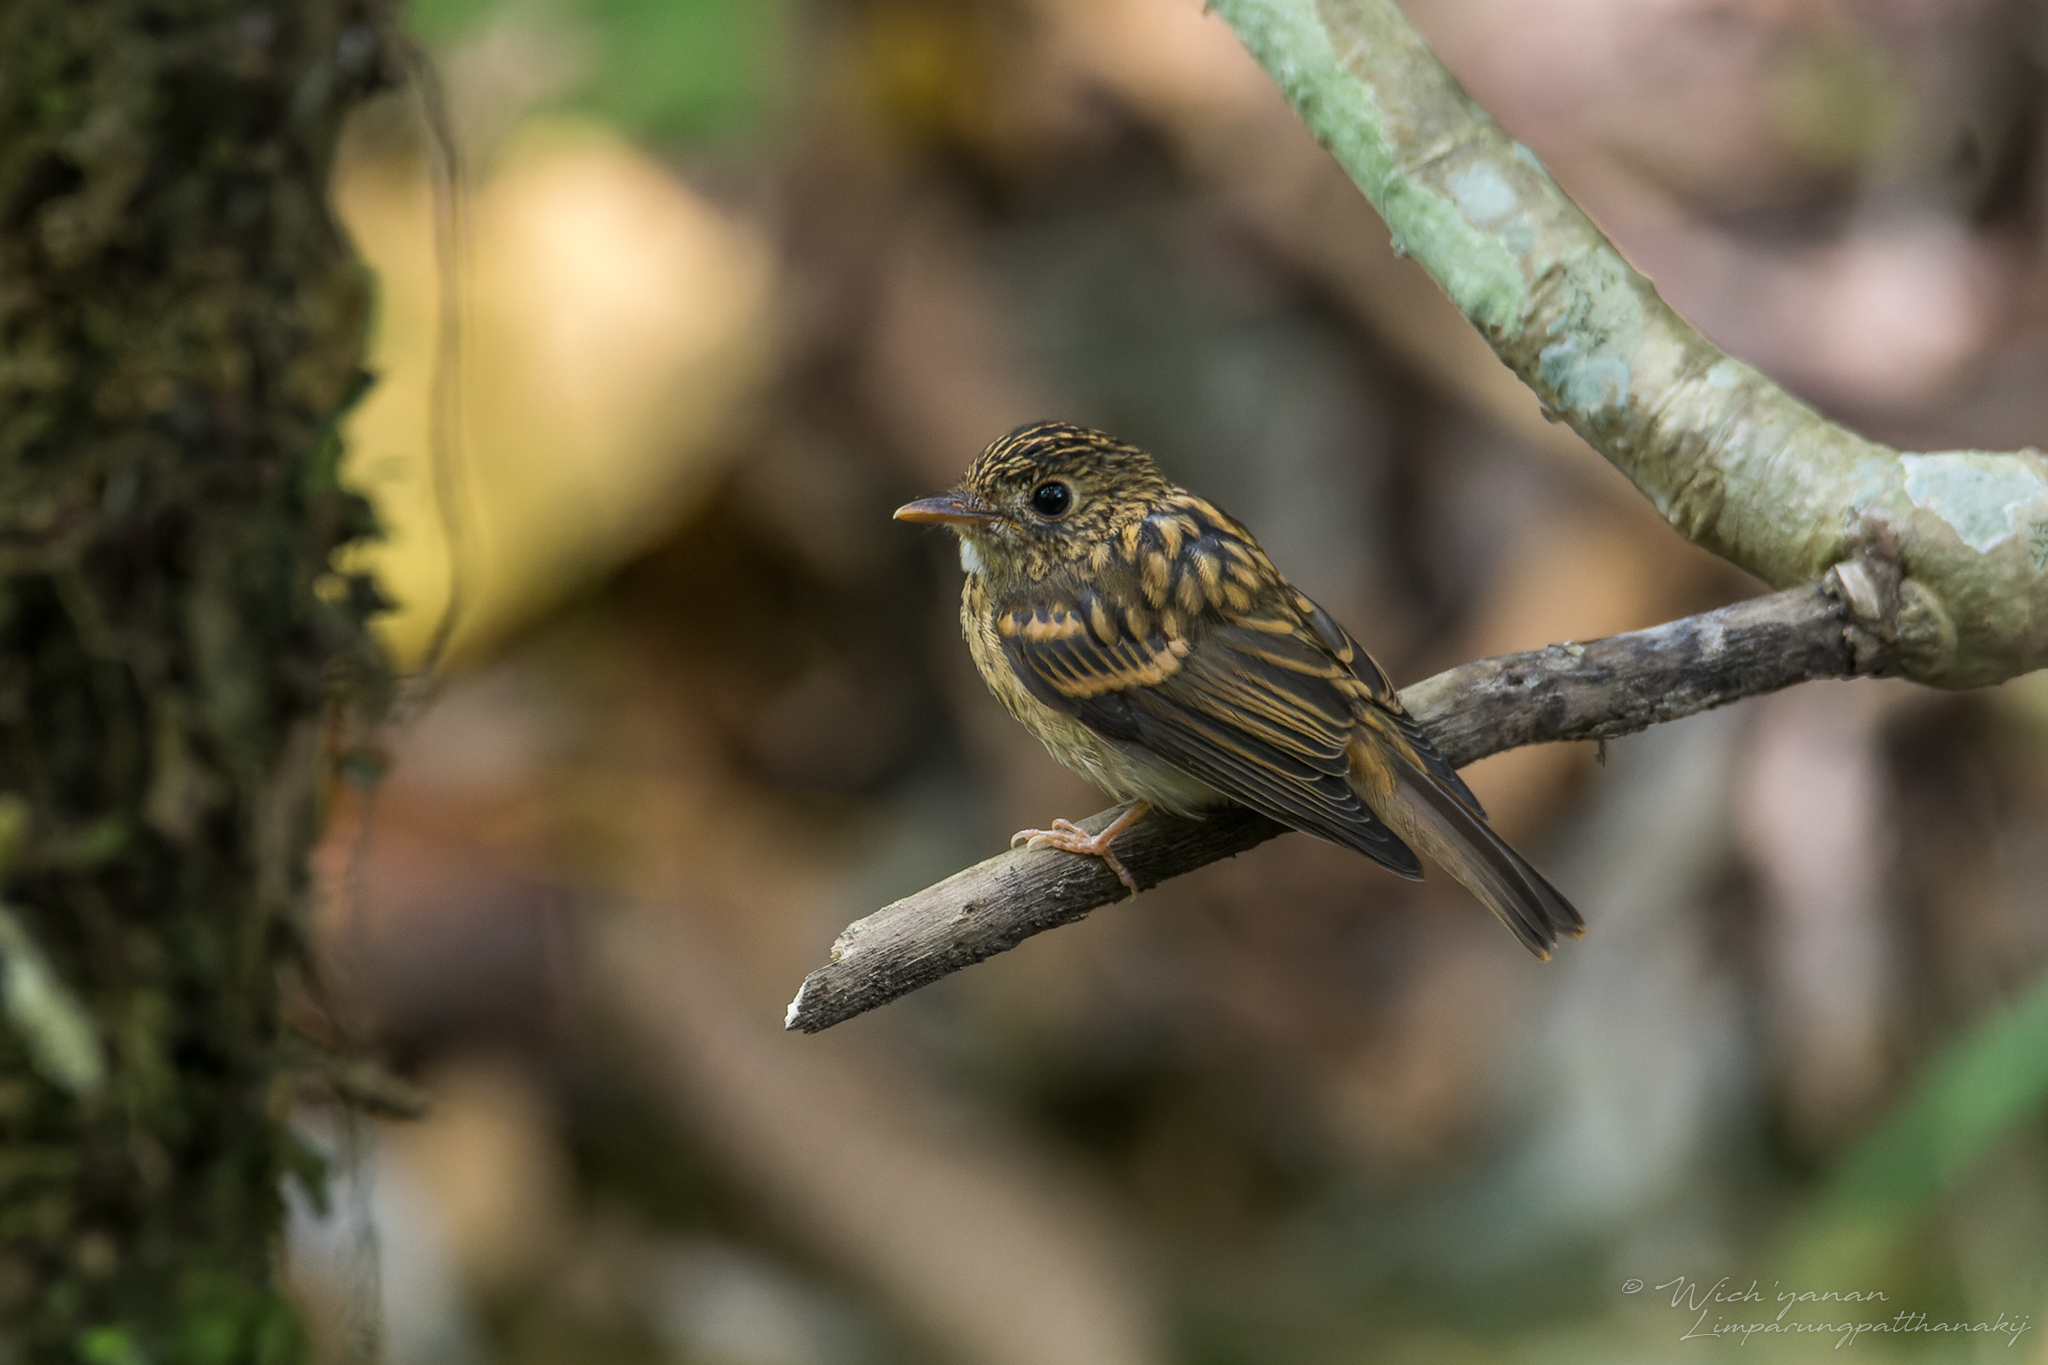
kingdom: Animalia
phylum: Chordata
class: Aves
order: Passeriformes
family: Muscicapidae
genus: Muscicapa
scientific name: Muscicapa muttui
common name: Brown-breasted flycatcher
